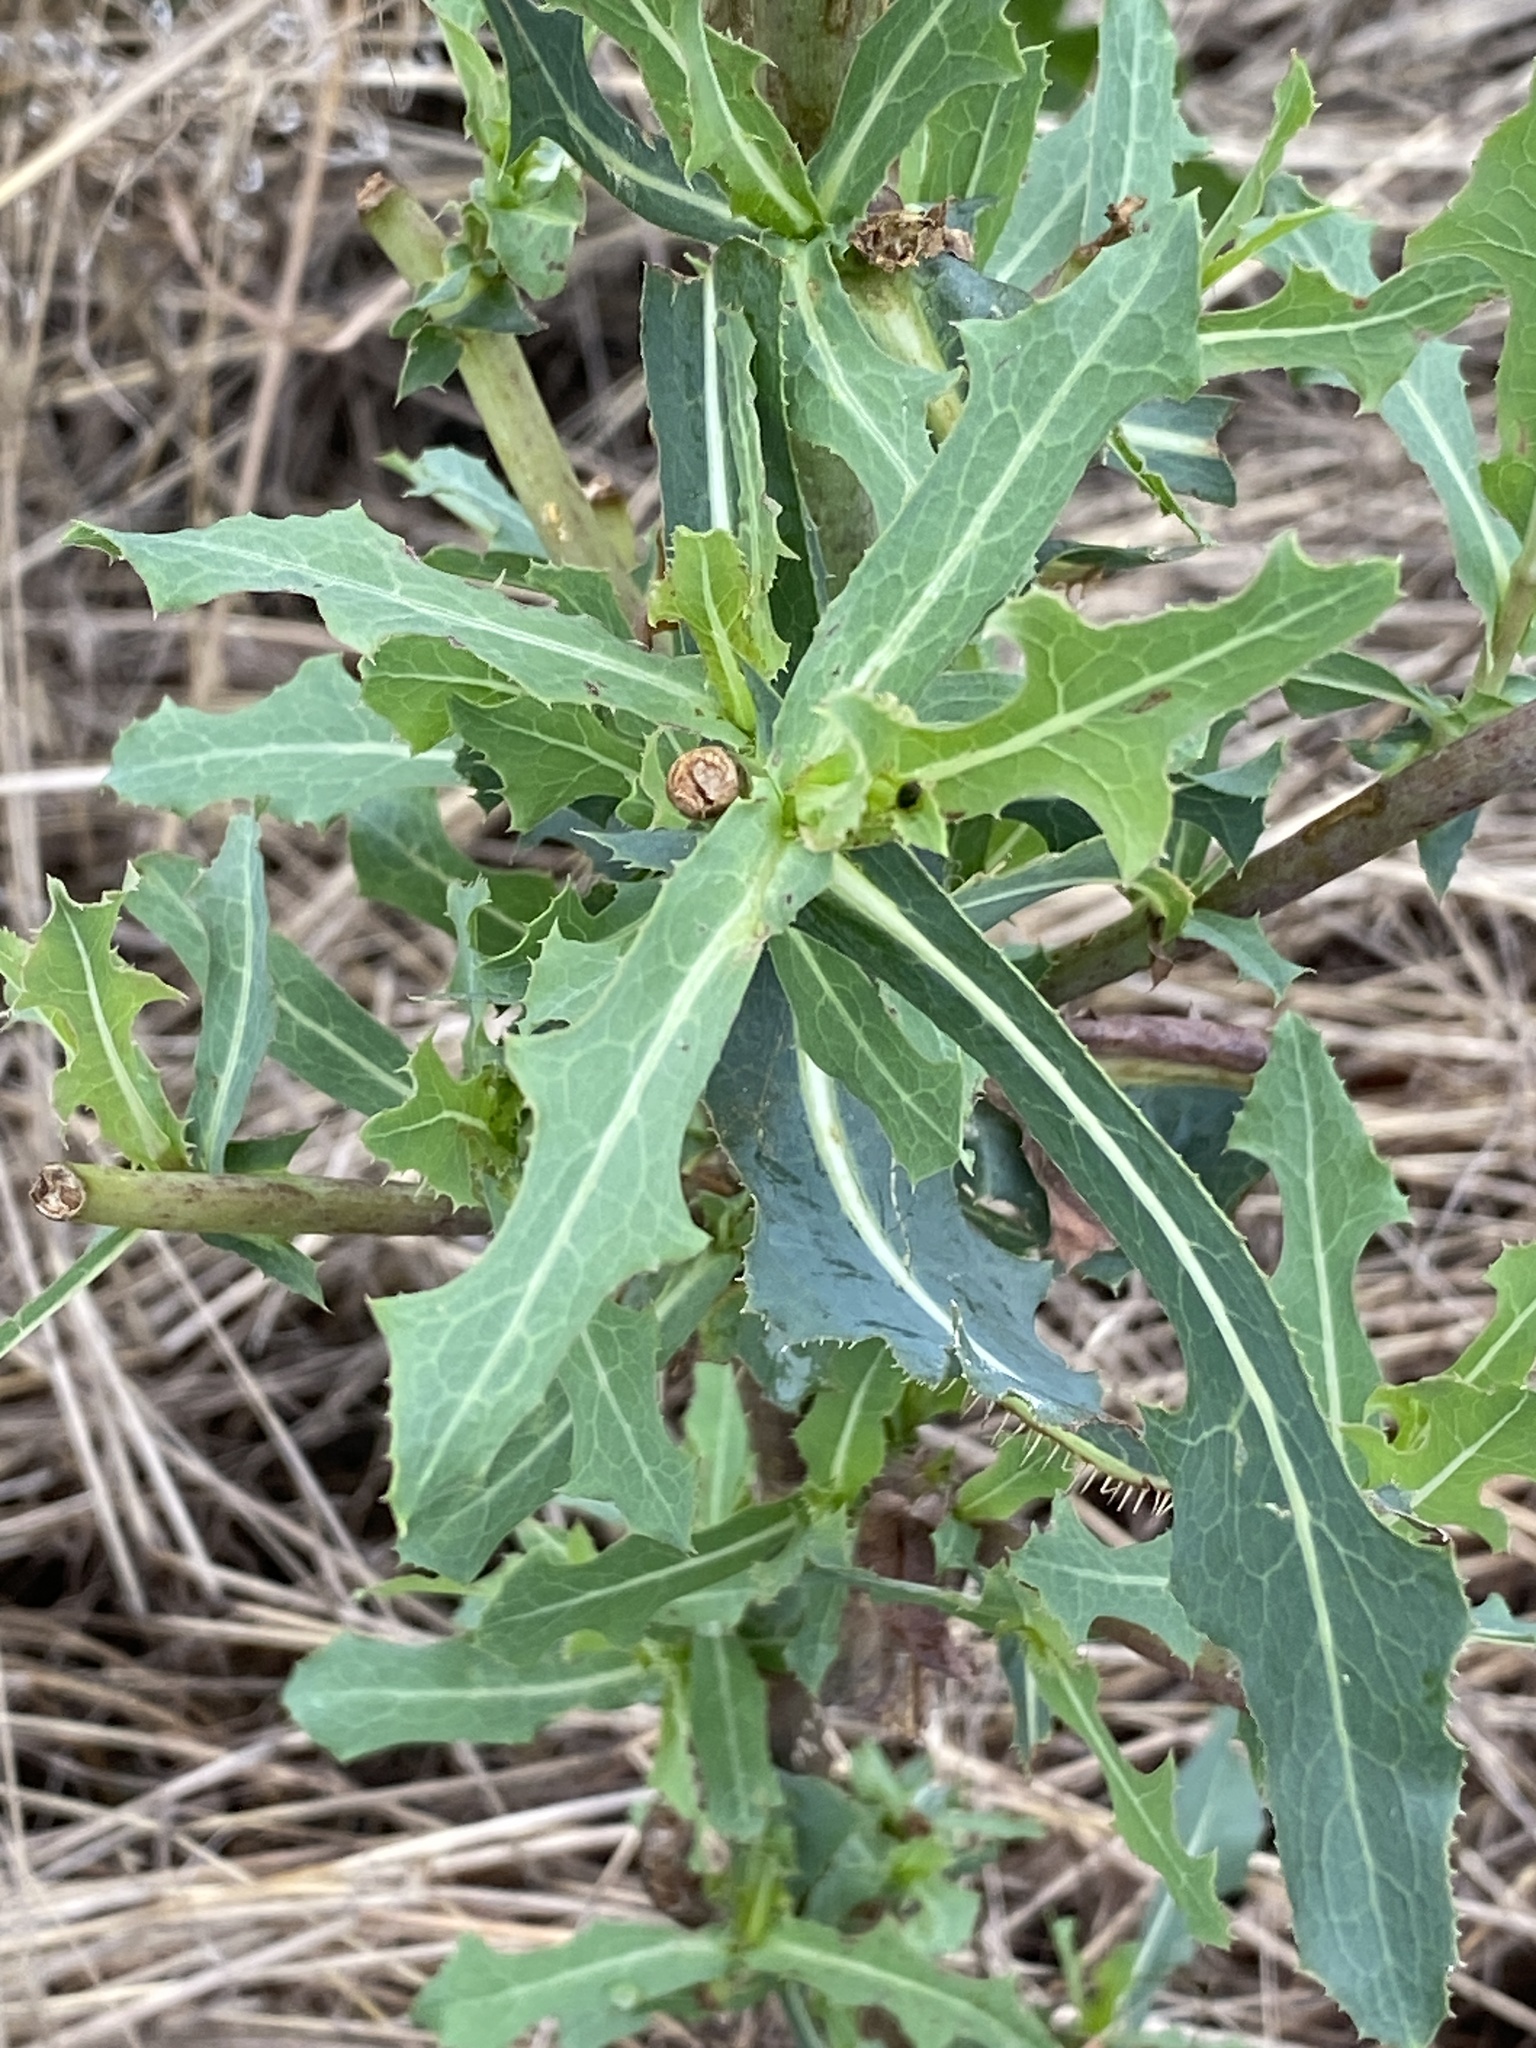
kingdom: Plantae
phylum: Tracheophyta
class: Magnoliopsida
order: Asterales
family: Asteraceae
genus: Lactuca
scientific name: Lactuca serriola
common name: Prickly lettuce
